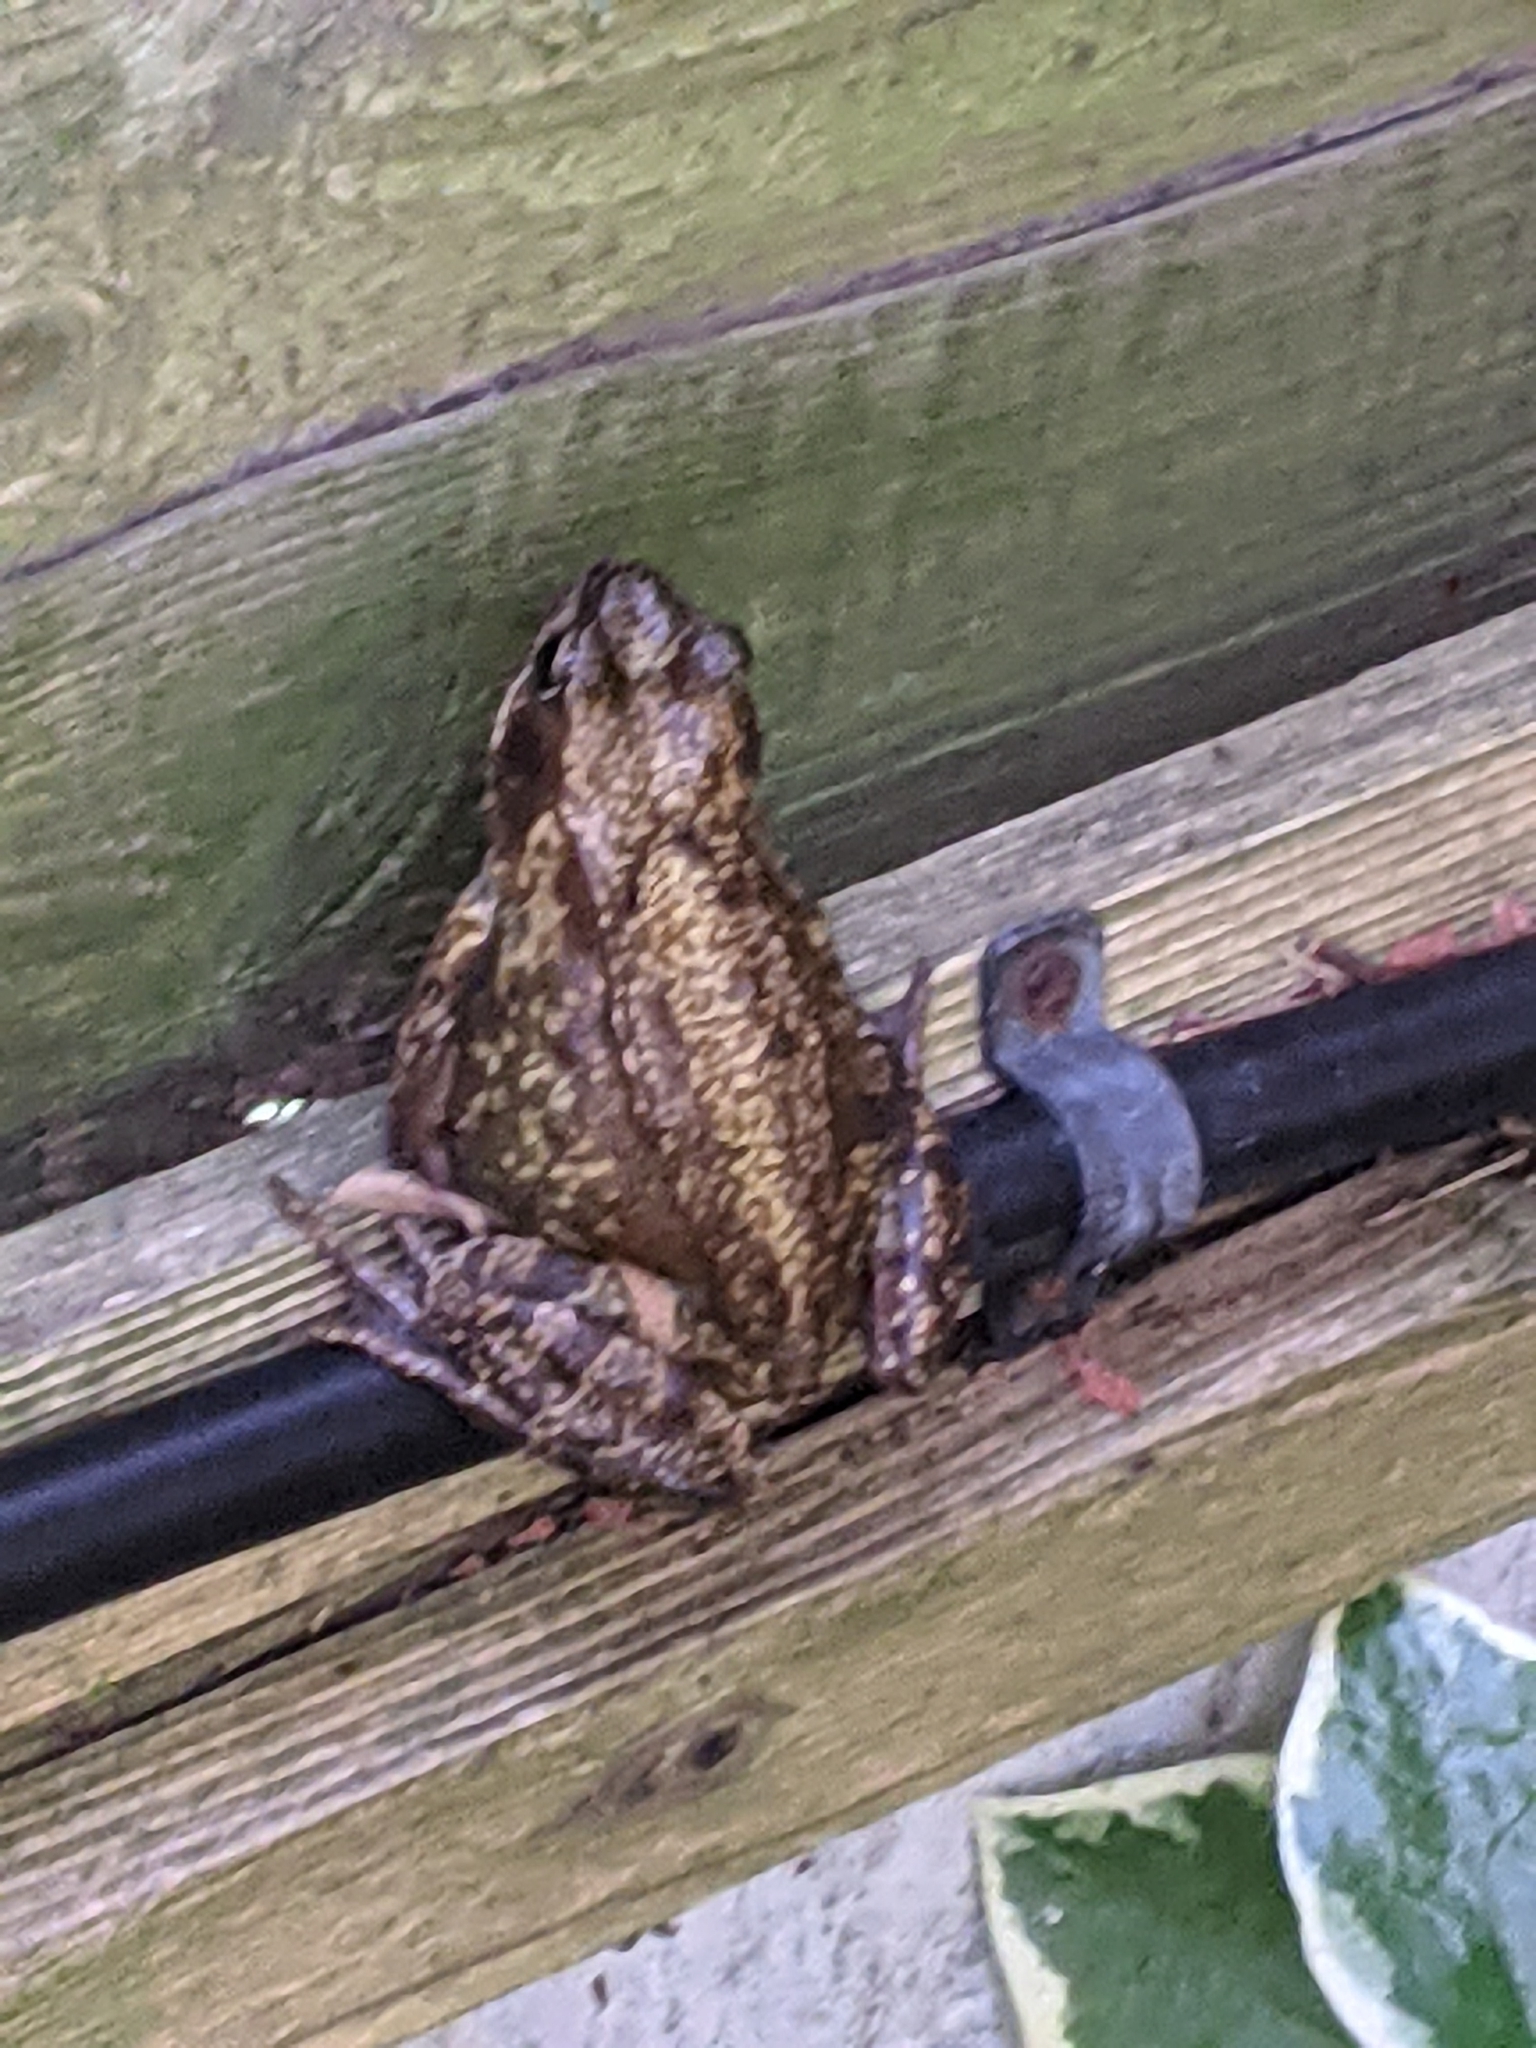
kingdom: Animalia
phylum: Chordata
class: Amphibia
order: Anura
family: Ranidae
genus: Rana
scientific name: Rana temporaria
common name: Common frog
